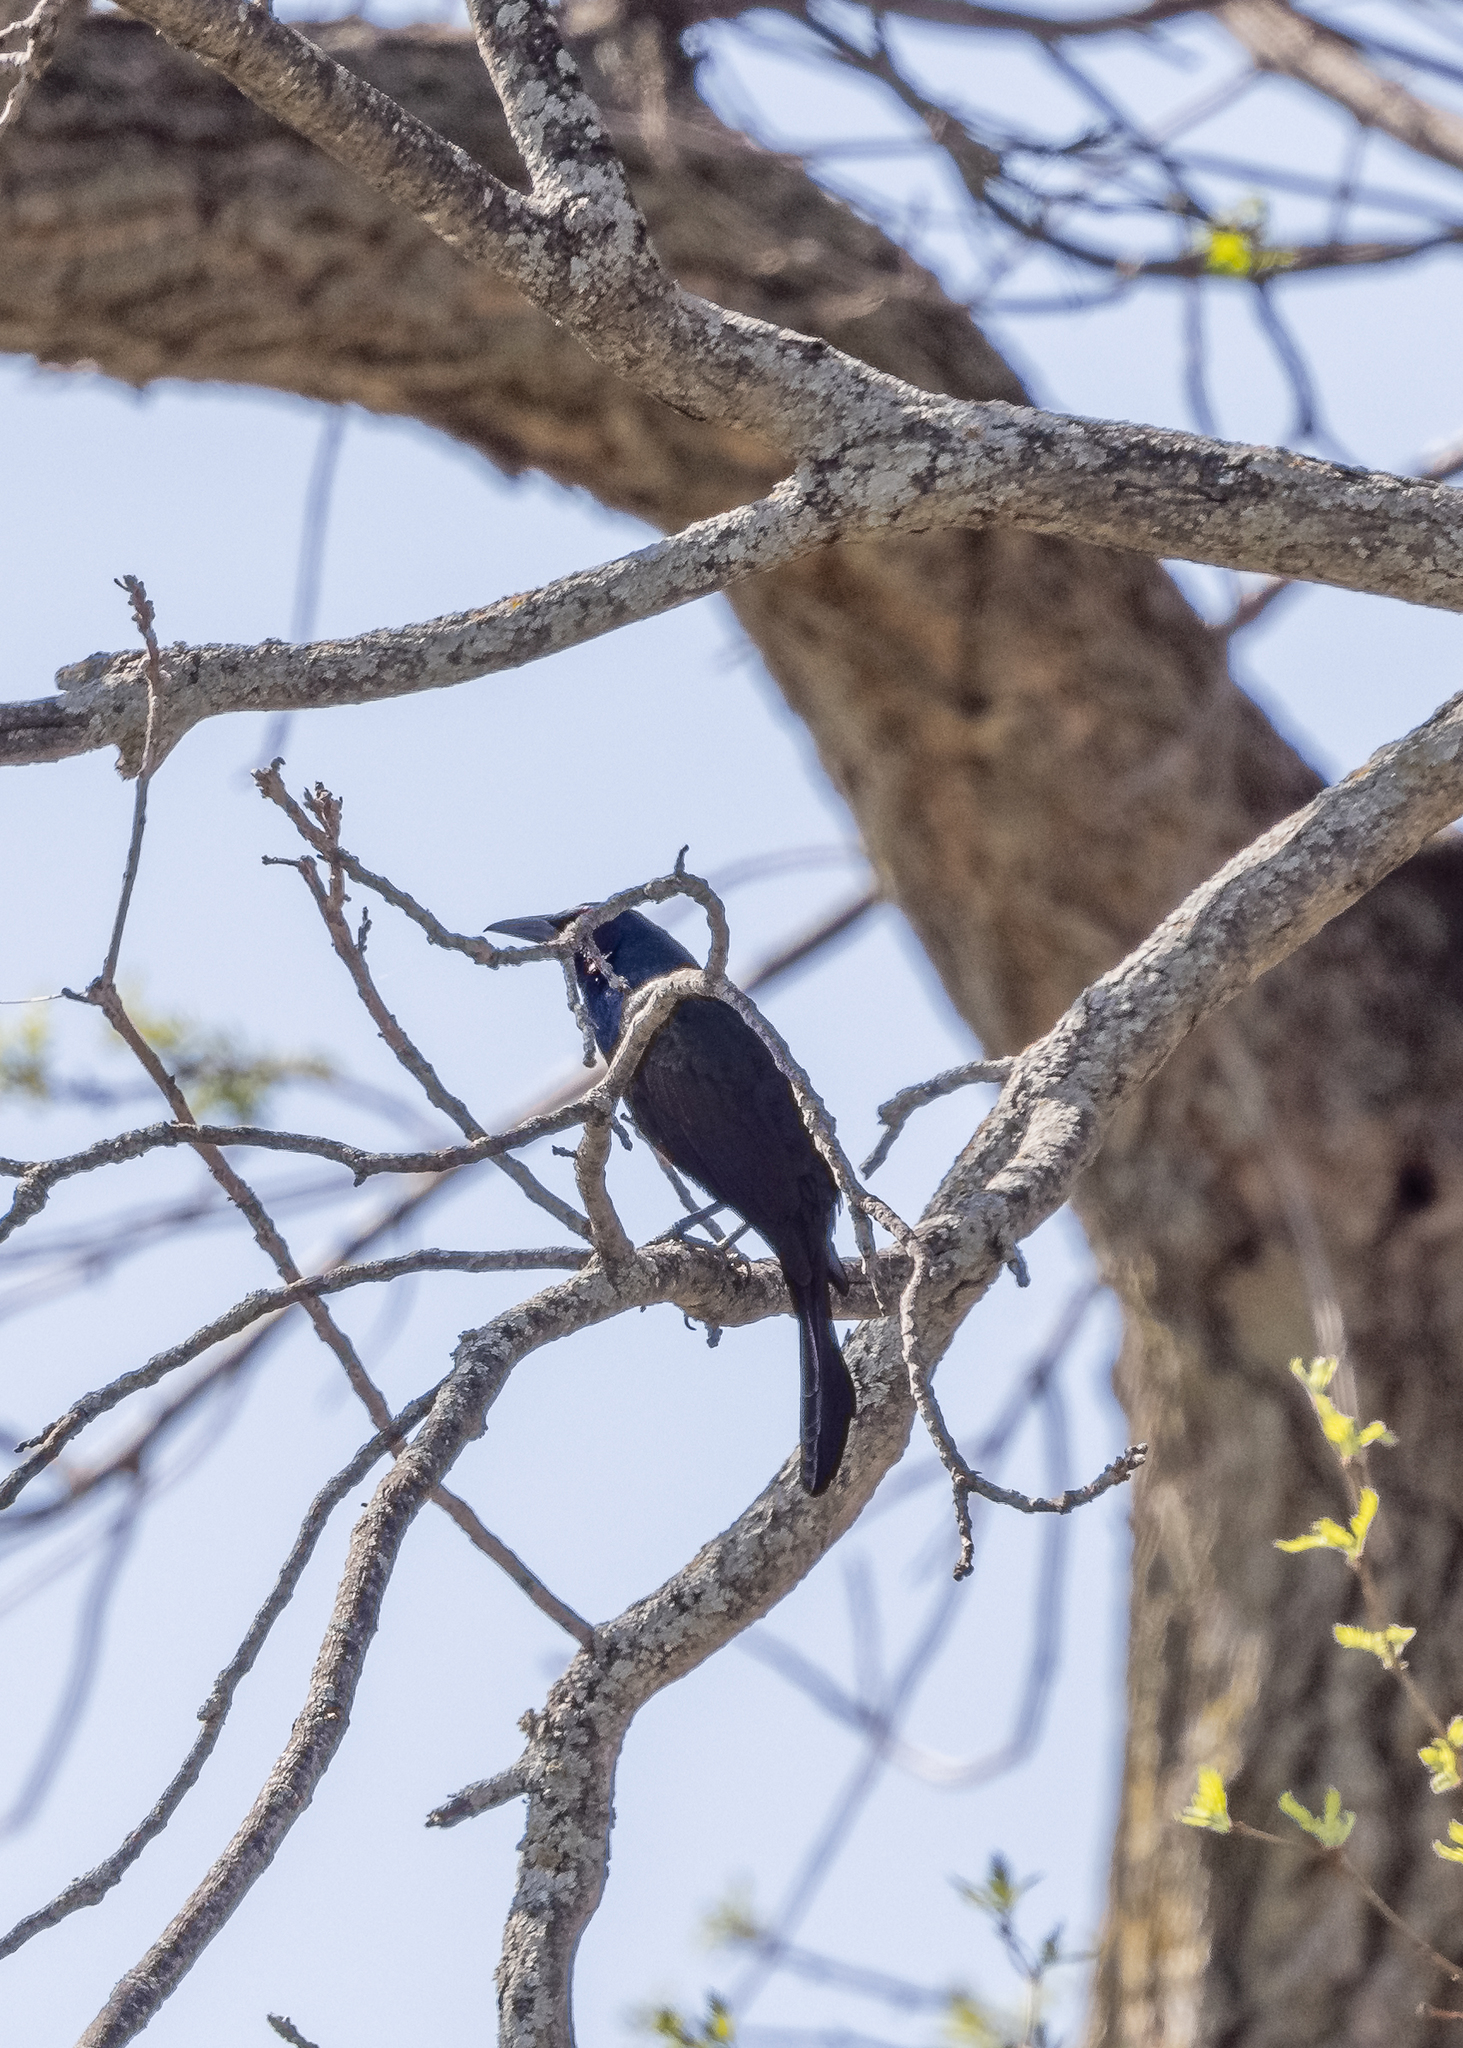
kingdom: Animalia
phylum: Chordata
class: Aves
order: Passeriformes
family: Icteridae
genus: Quiscalus
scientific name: Quiscalus quiscula
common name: Common grackle
